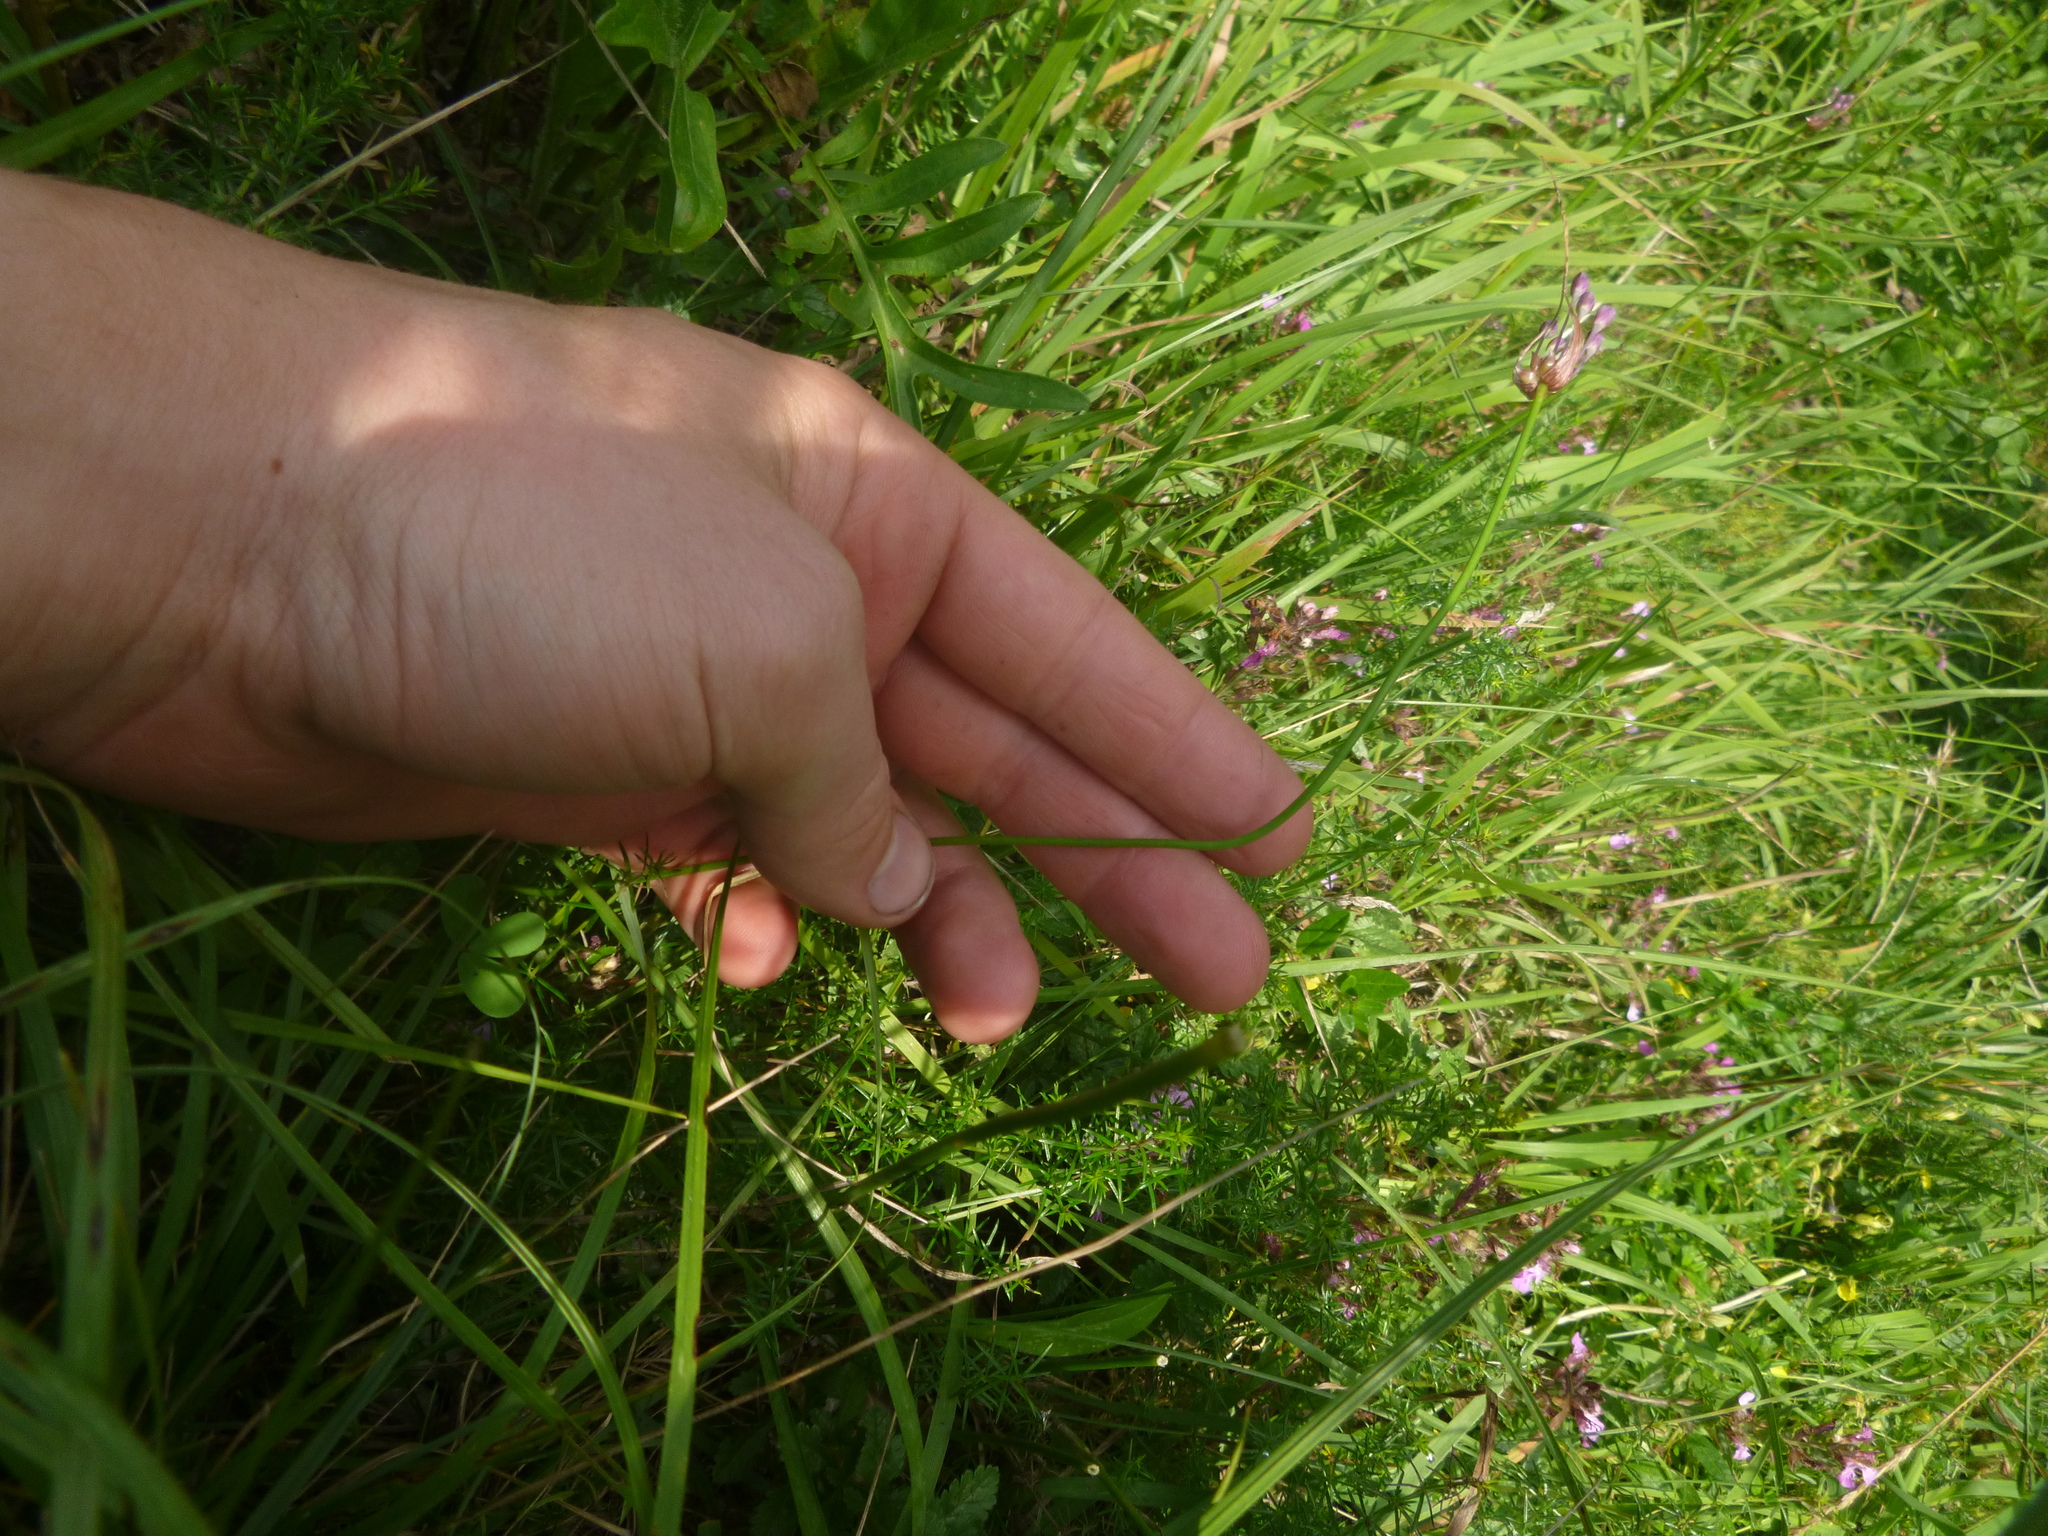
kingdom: Plantae
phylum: Tracheophyta
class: Liliopsida
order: Asparagales
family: Amaryllidaceae
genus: Allium
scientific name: Allium carinatum
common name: Keeled garlic
